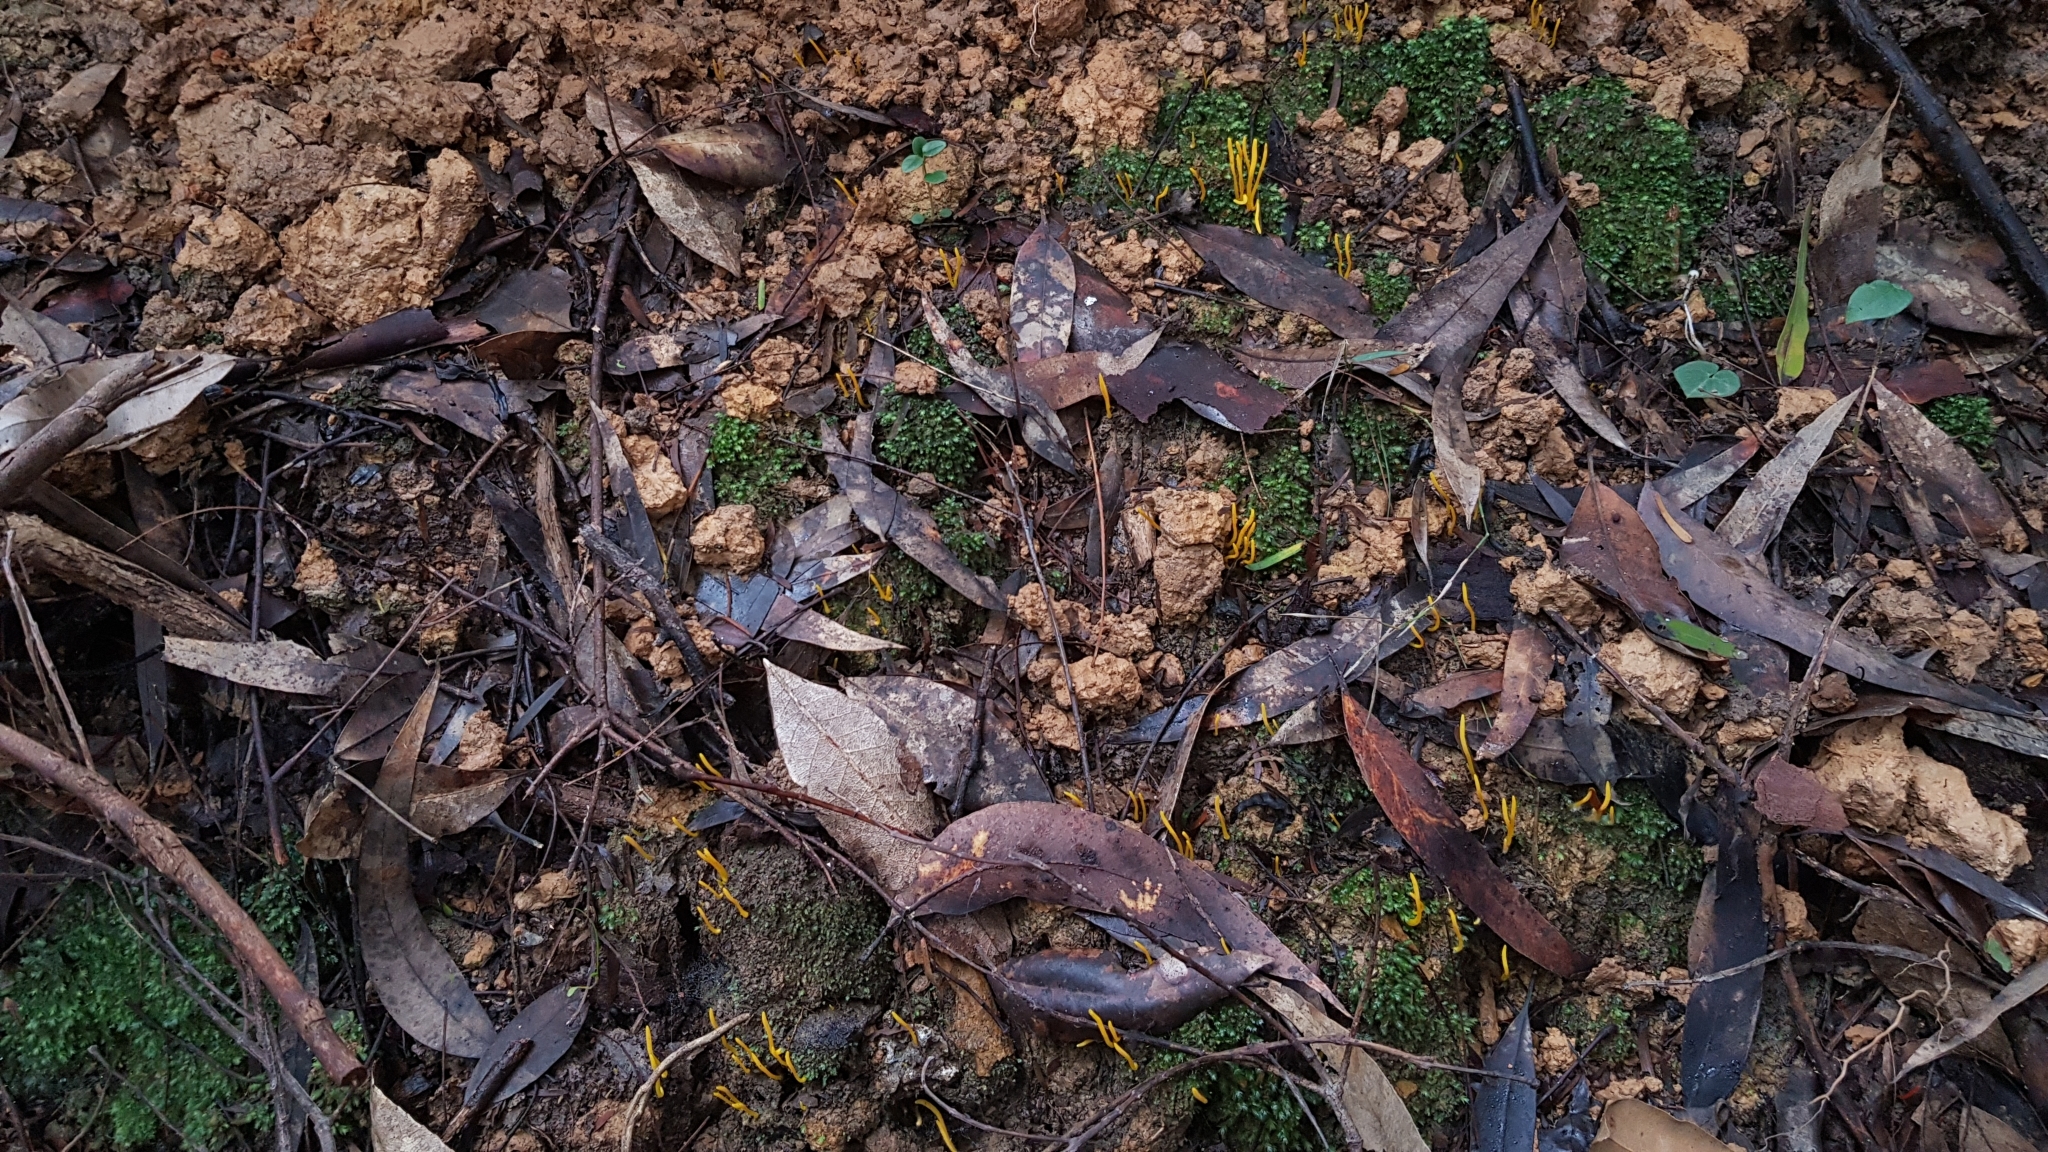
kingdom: Fungi
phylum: Basidiomycota
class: Agaricomycetes
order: Agaricales
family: Clavariaceae
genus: Clavulinopsis
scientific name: Clavulinopsis amoena
